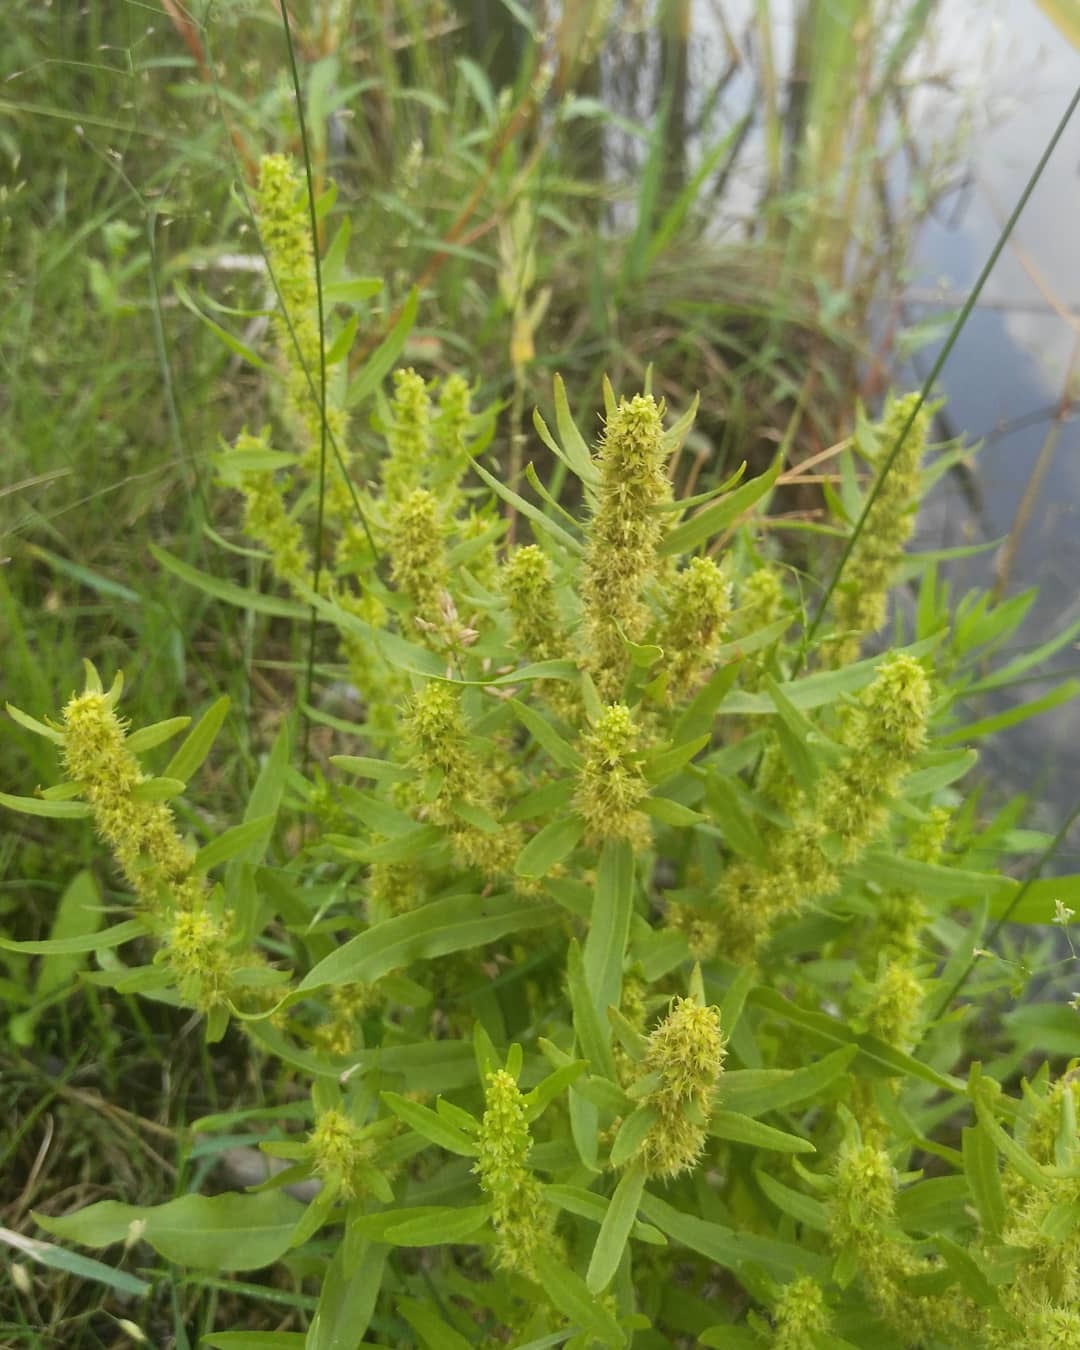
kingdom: Plantae
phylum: Tracheophyta
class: Magnoliopsida
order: Caryophyllales
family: Polygonaceae
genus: Rumex
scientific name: Rumex maritimus
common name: Golden dock
